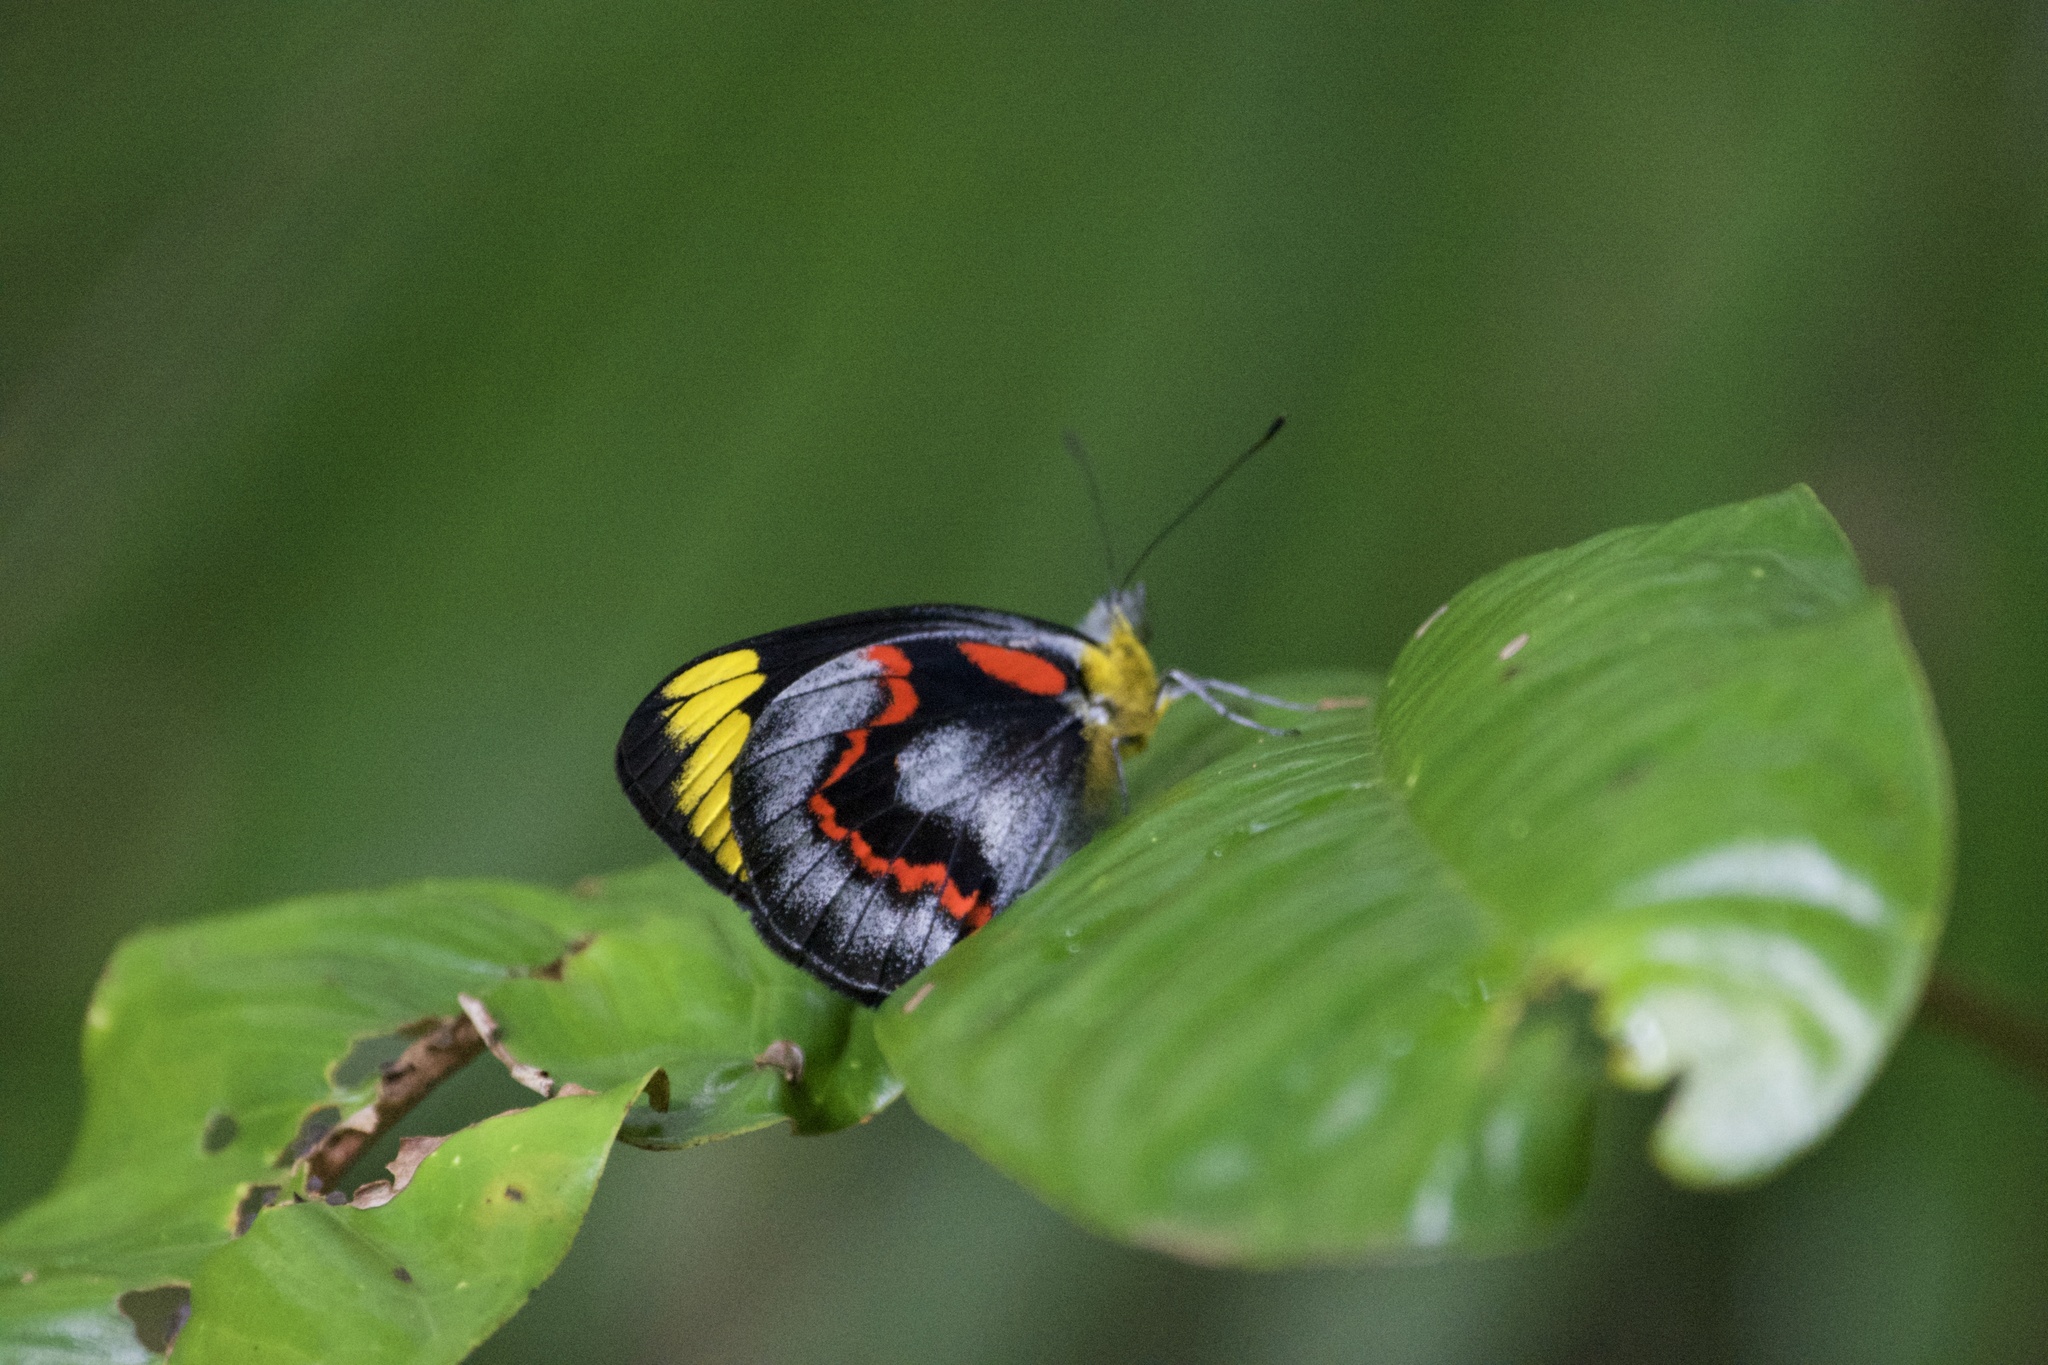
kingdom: Animalia
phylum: Arthropoda
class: Insecta
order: Lepidoptera
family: Pieridae
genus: Delias
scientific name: Delias nigrina
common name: Black jezebel
